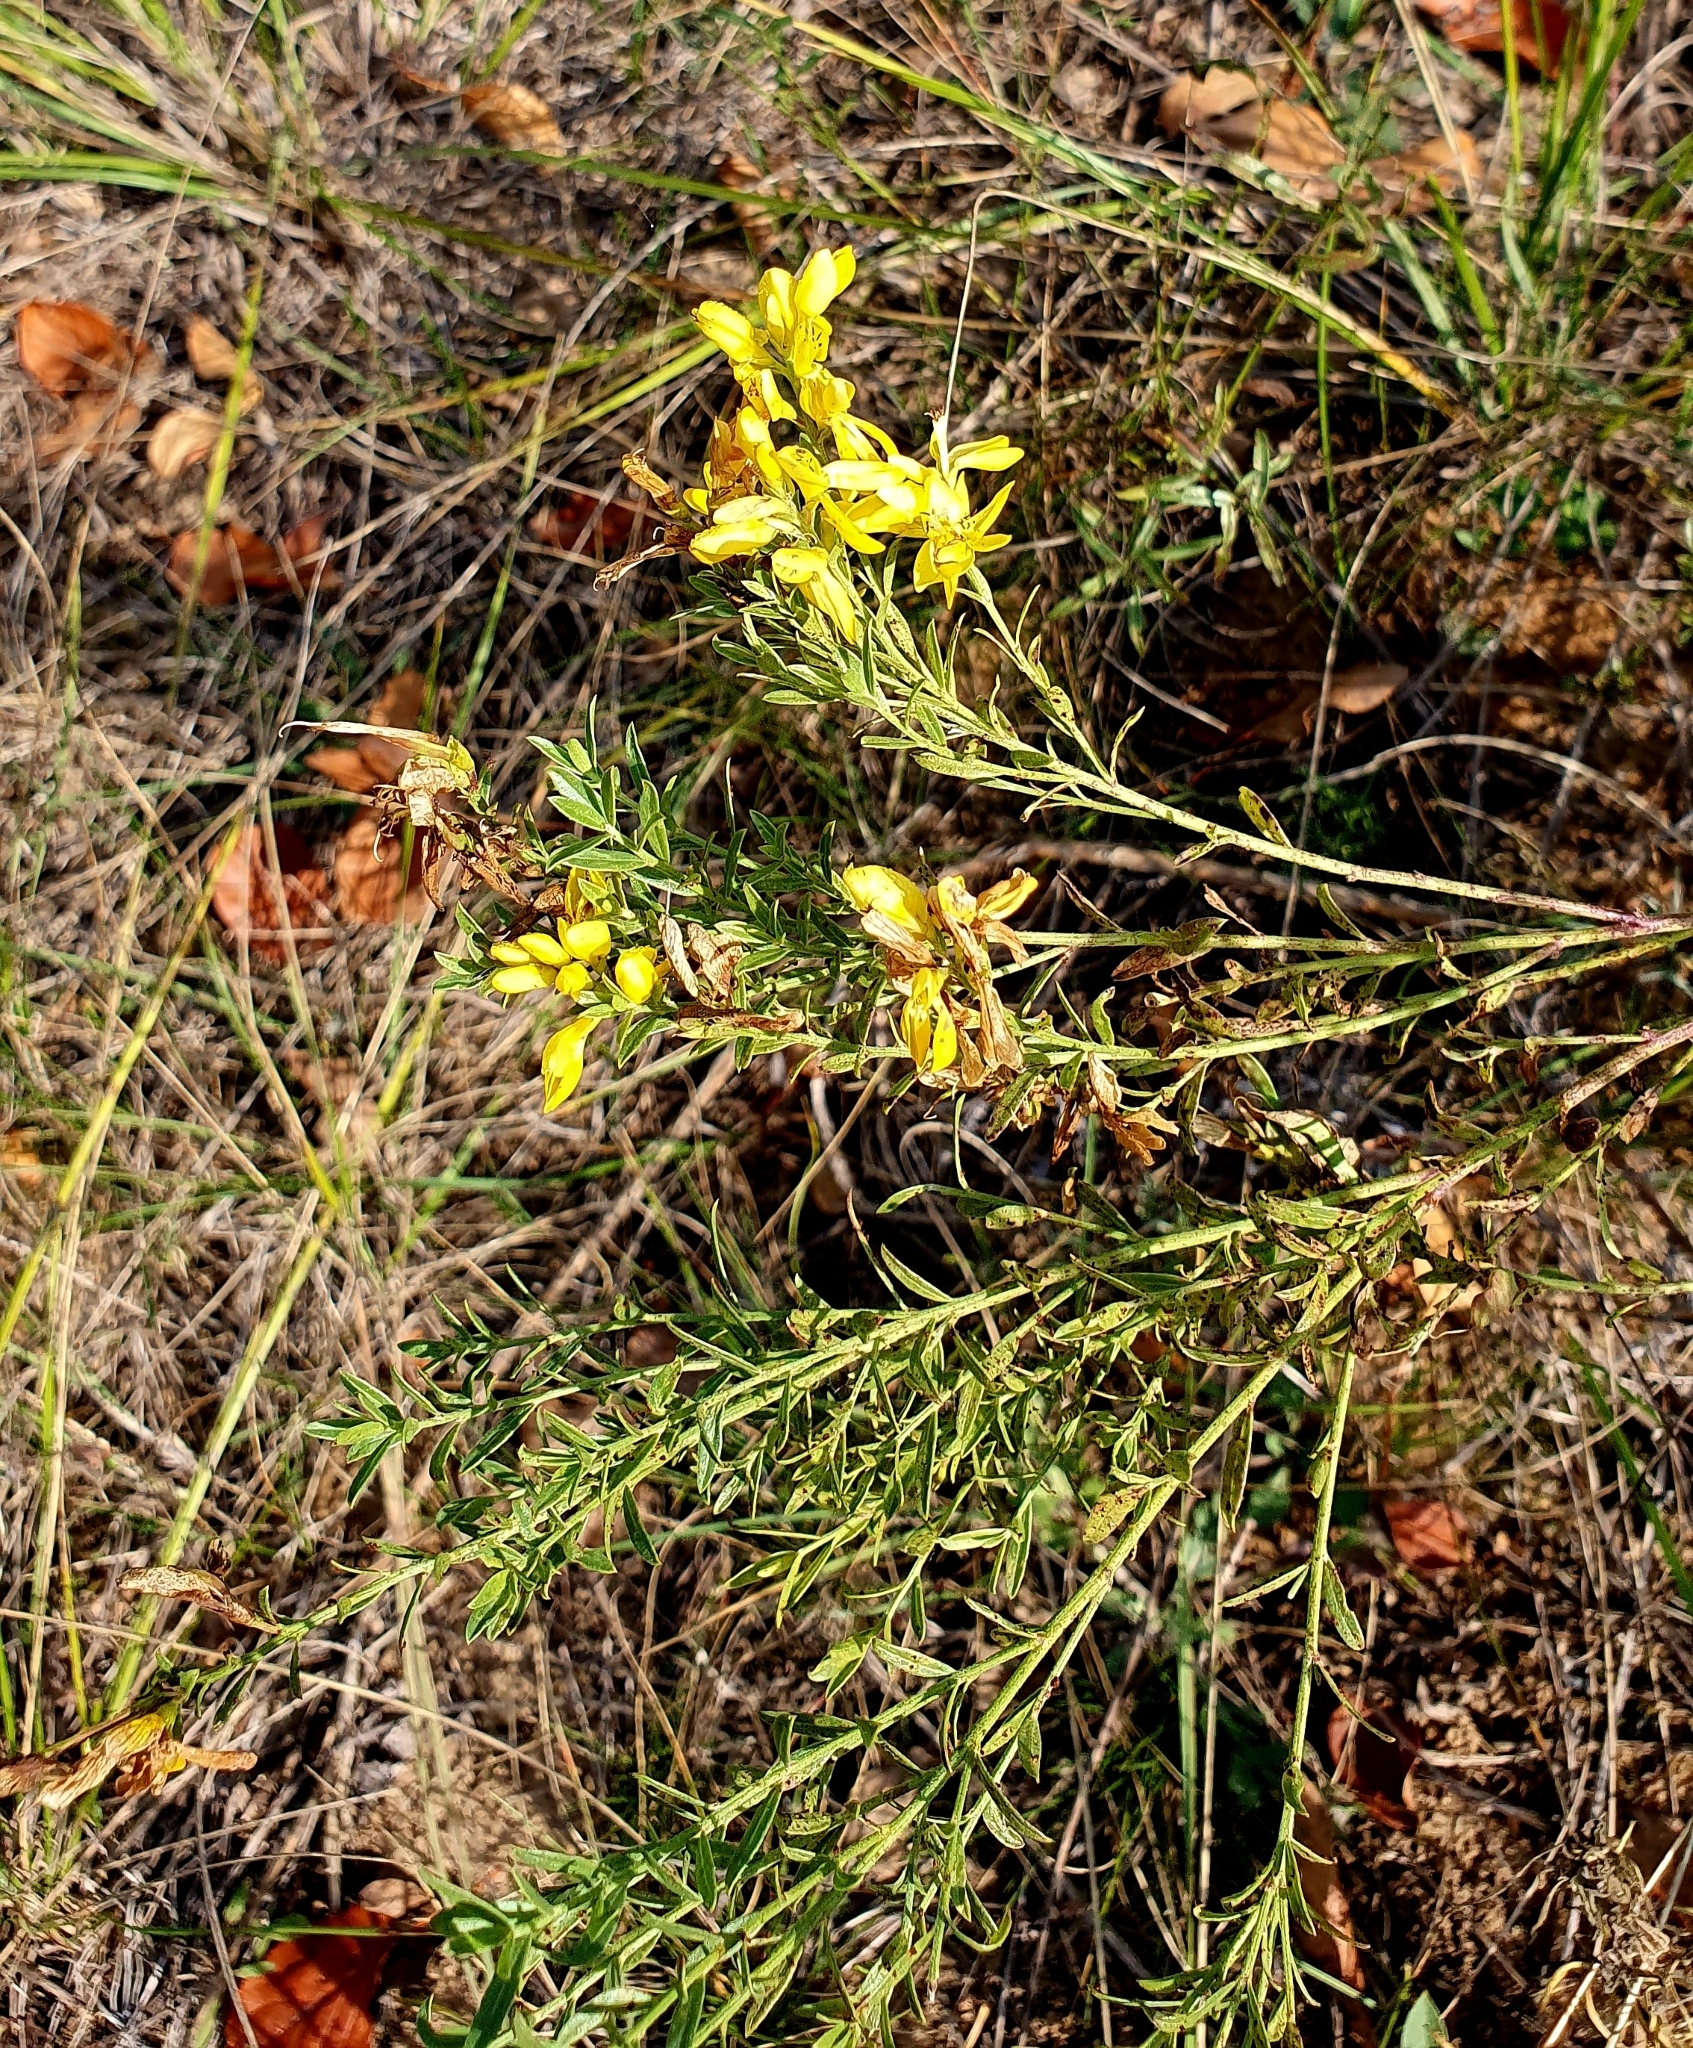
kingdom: Plantae
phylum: Tracheophyta
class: Magnoliopsida
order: Fabales
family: Fabaceae
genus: Genista
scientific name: Genista tinctoria
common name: Dyer's greenweed
